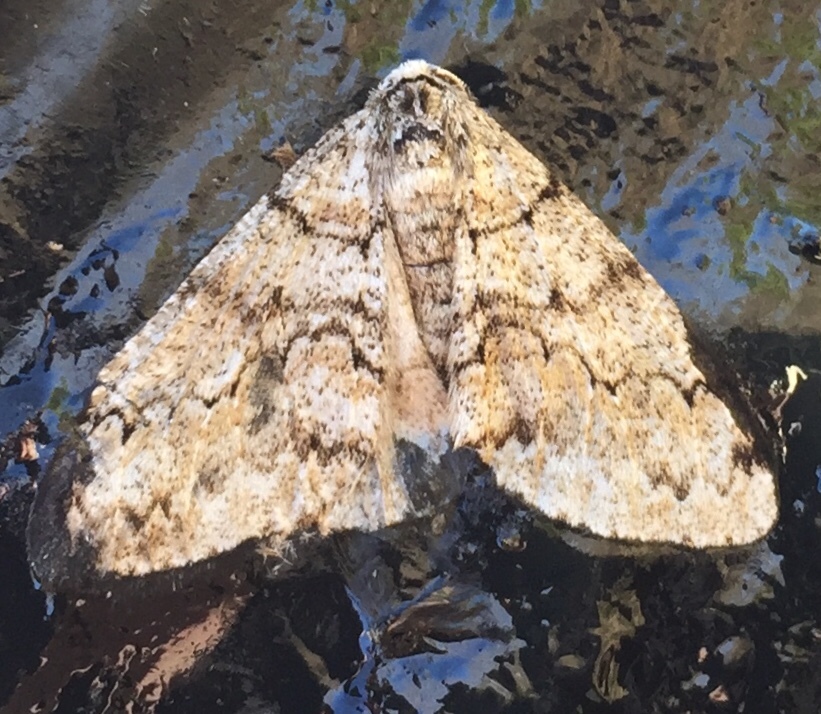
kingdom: Animalia
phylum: Arthropoda
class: Insecta
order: Lepidoptera
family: Geometridae
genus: Phigalia
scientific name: Phigalia denticulata
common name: Toothed phigalia
